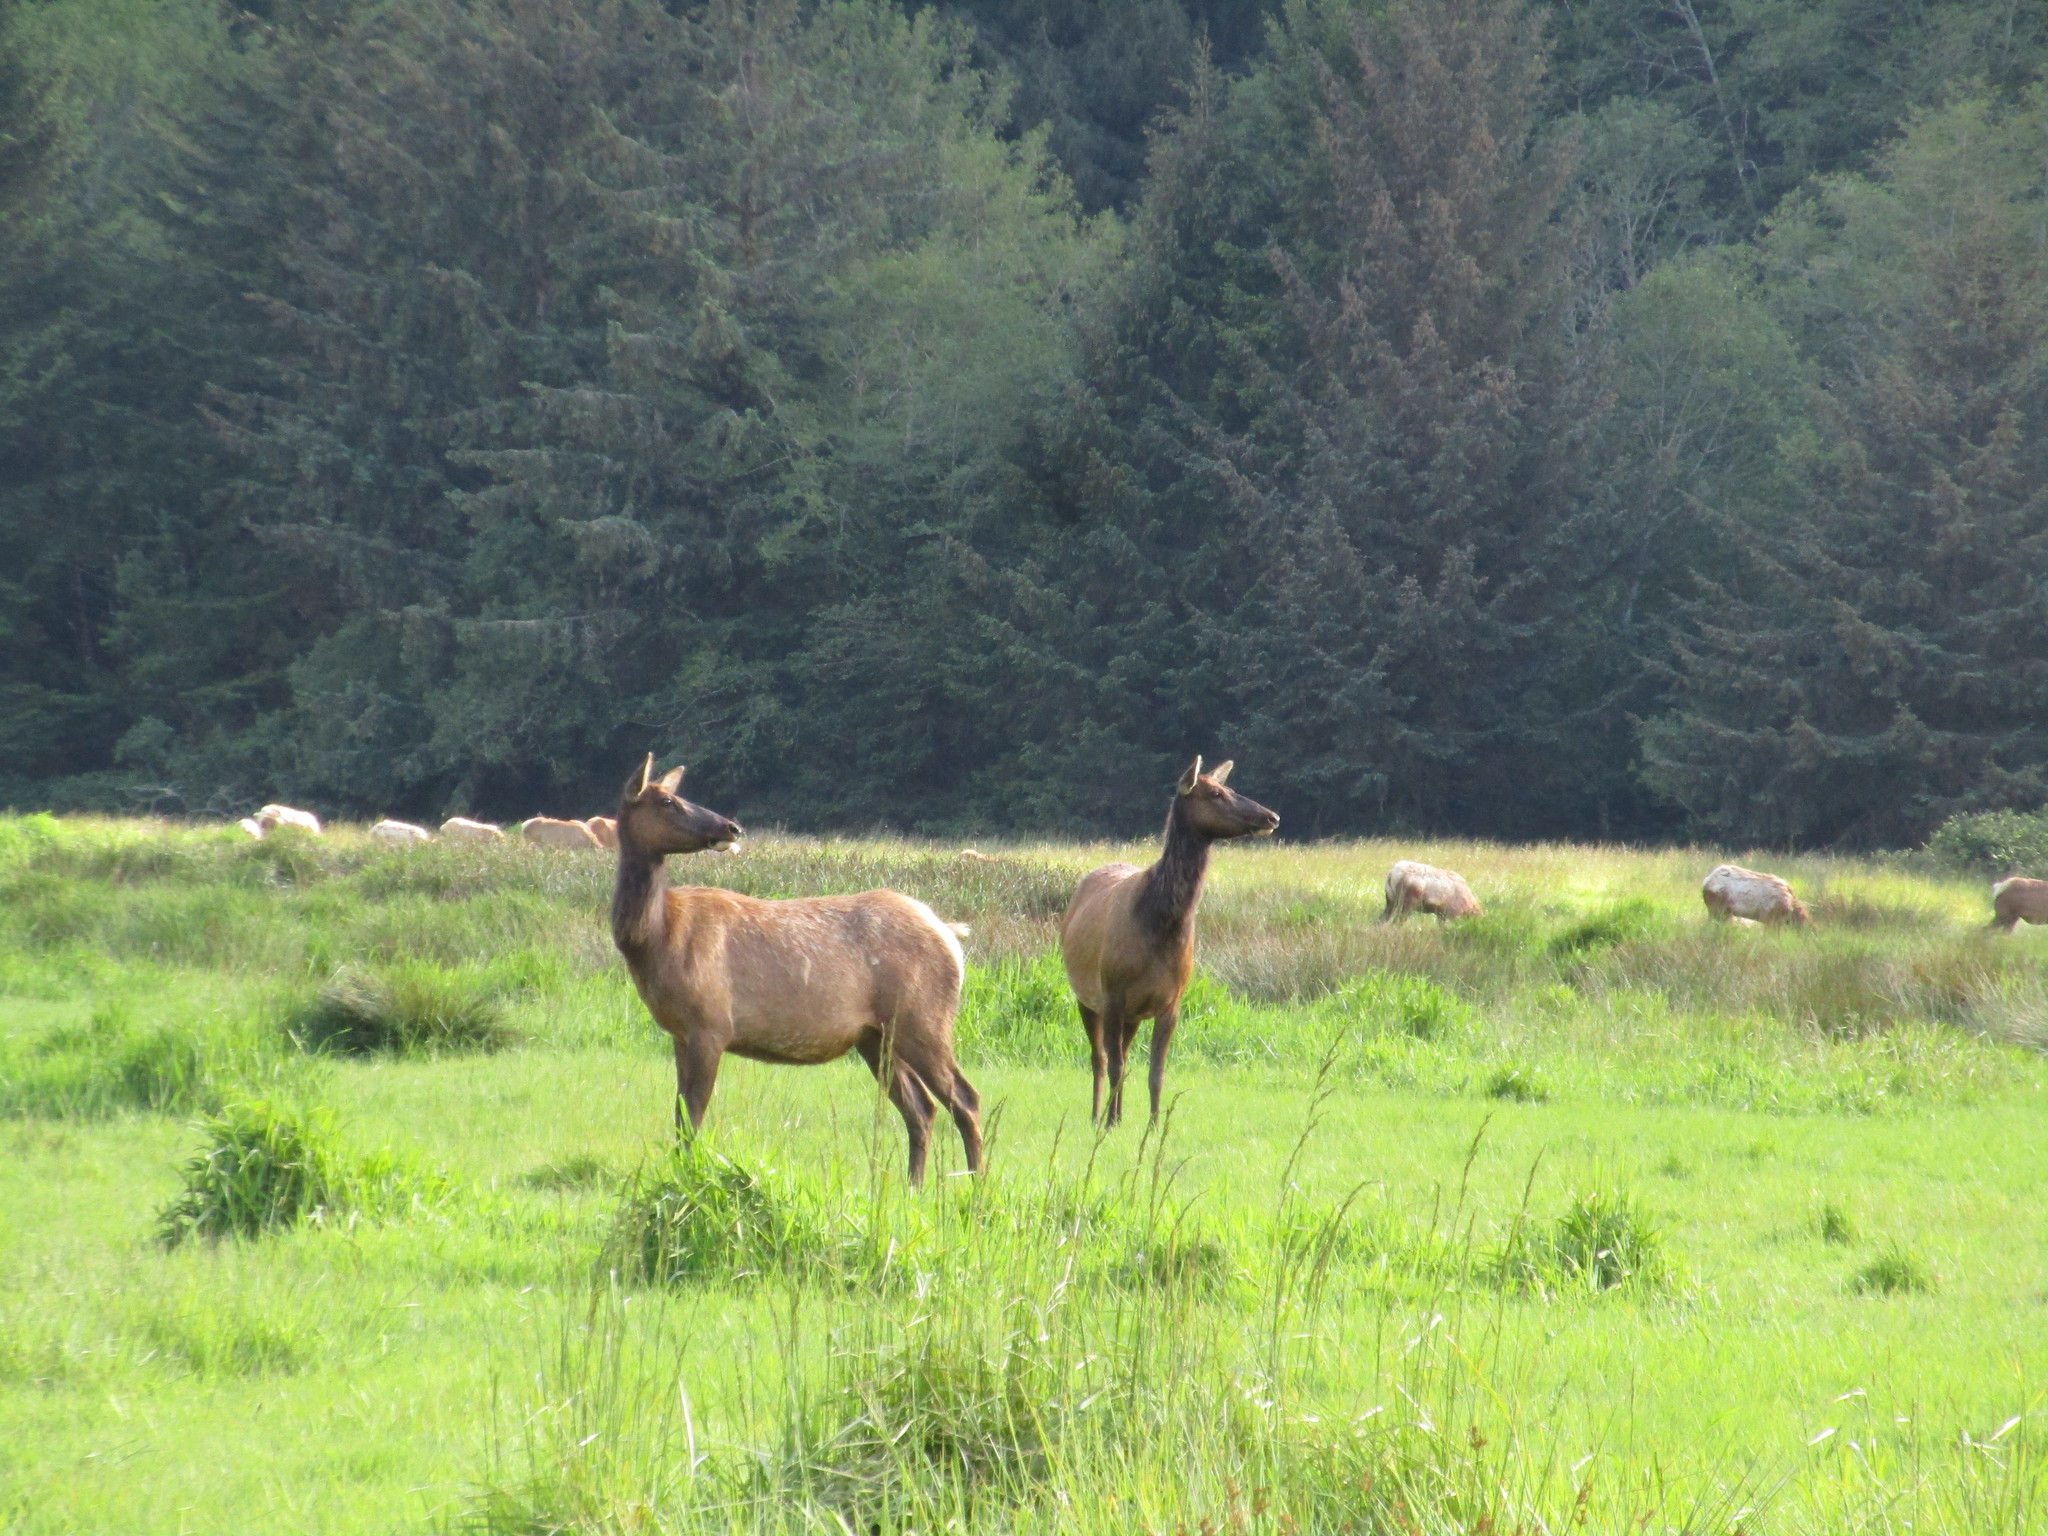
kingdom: Animalia
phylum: Chordata
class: Mammalia
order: Artiodactyla
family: Cervidae
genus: Cervus
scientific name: Cervus elaphus
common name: Red deer
